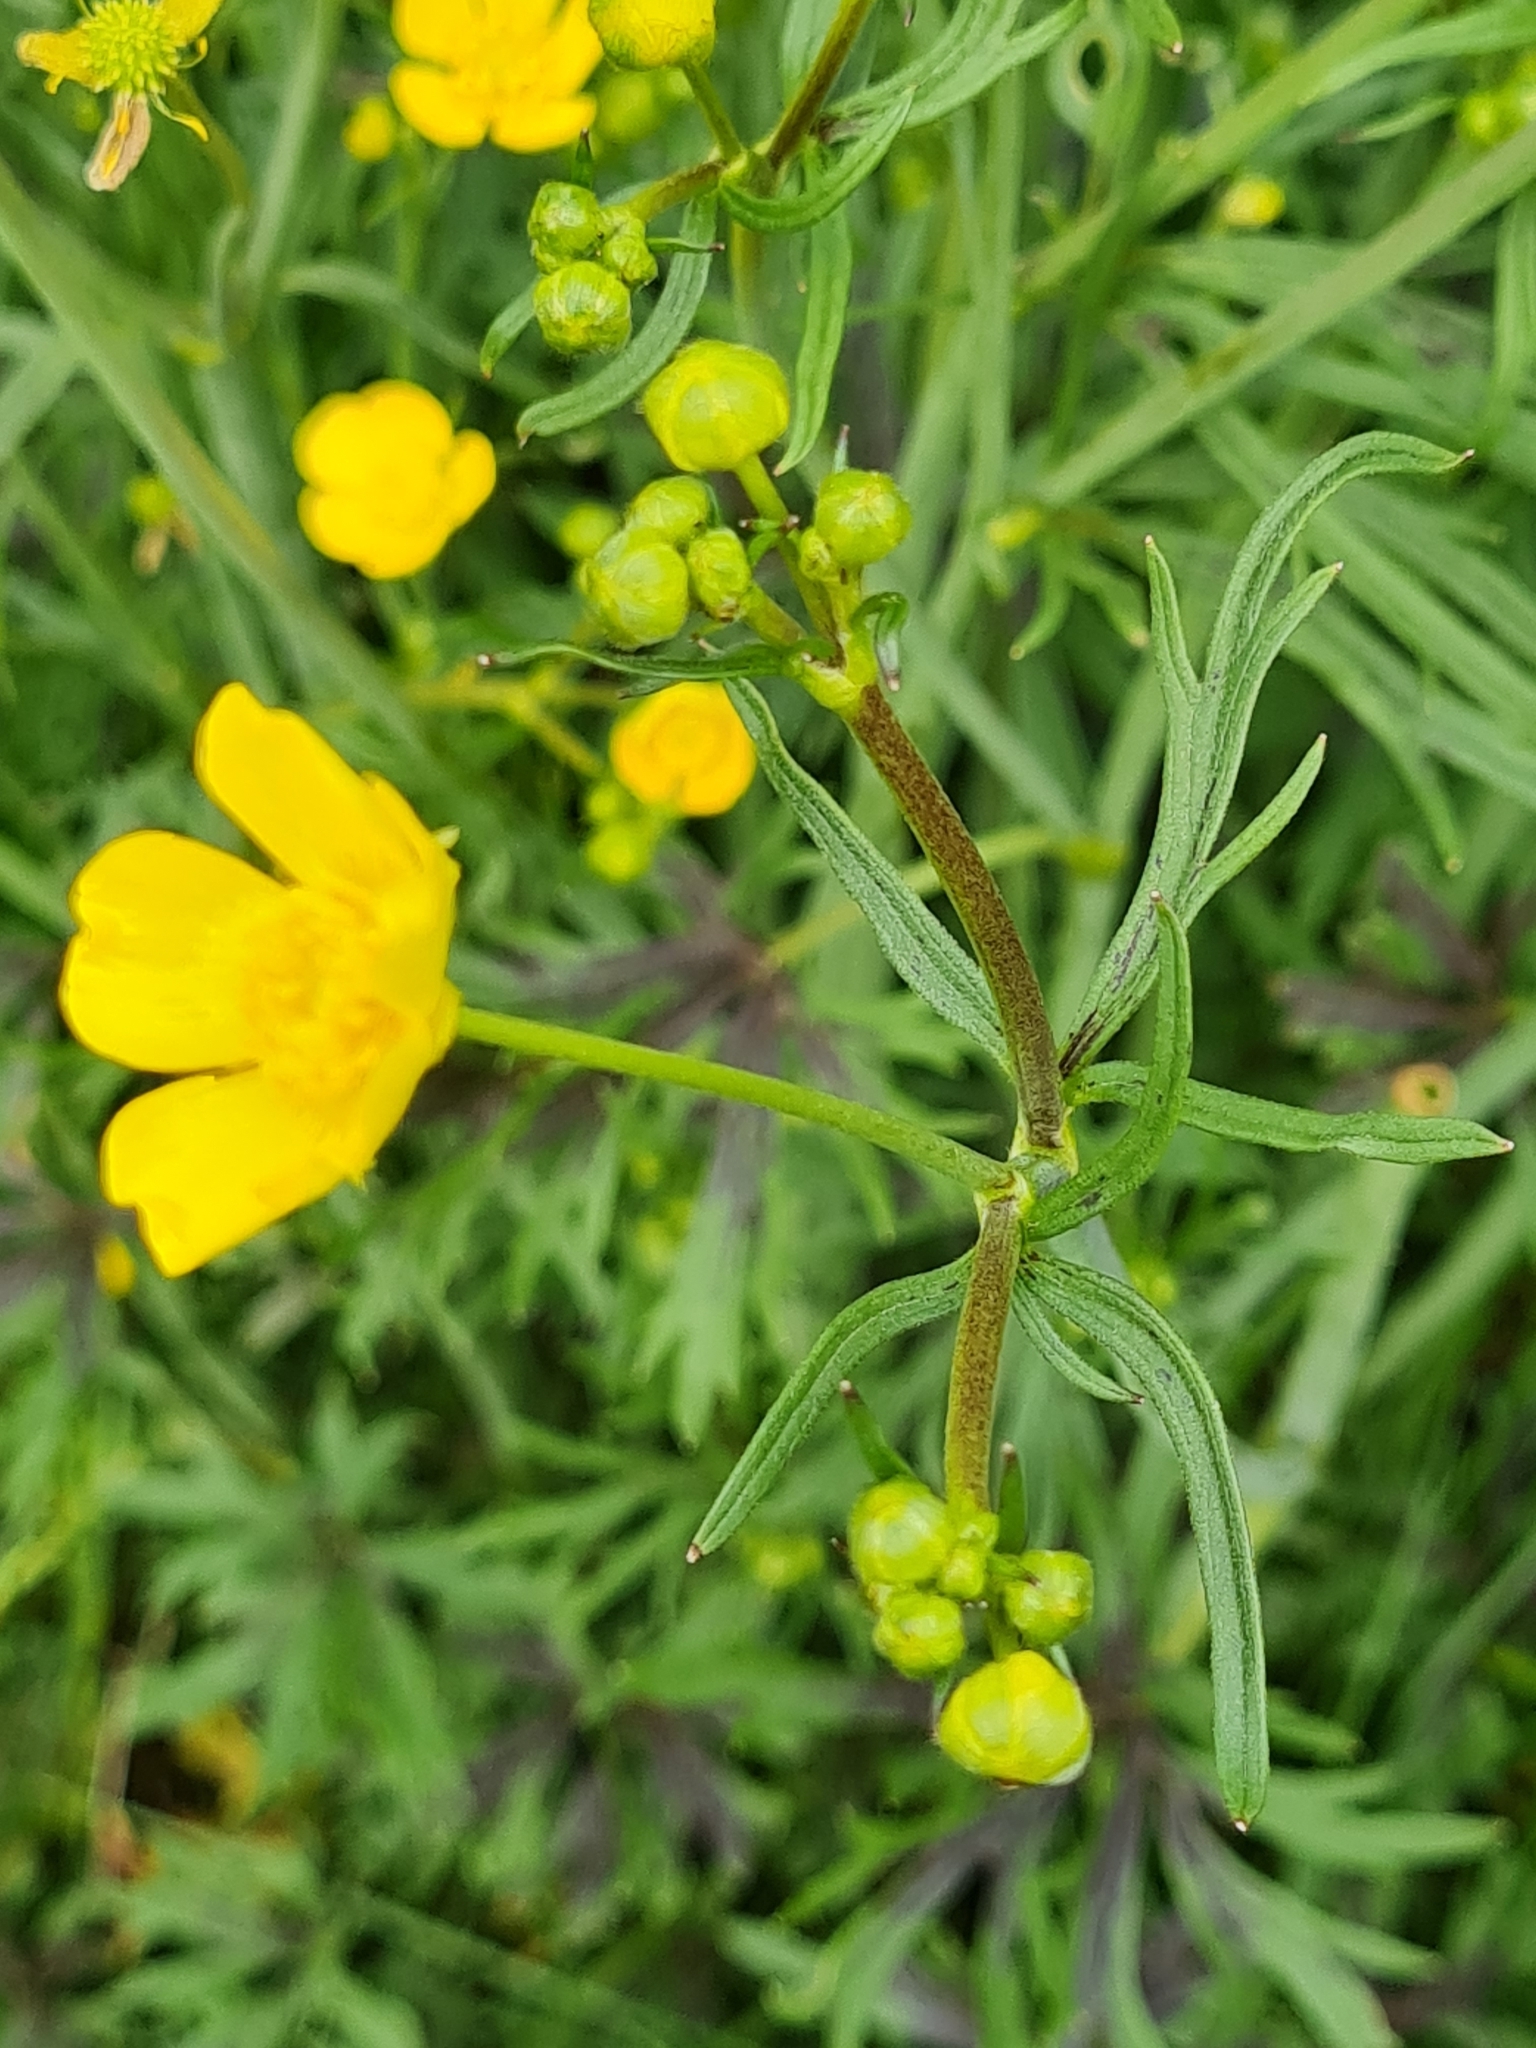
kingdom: Plantae
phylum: Tracheophyta
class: Magnoliopsida
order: Ranunculales
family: Ranunculaceae
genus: Ranunculus
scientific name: Ranunculus acris
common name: Meadow buttercup
